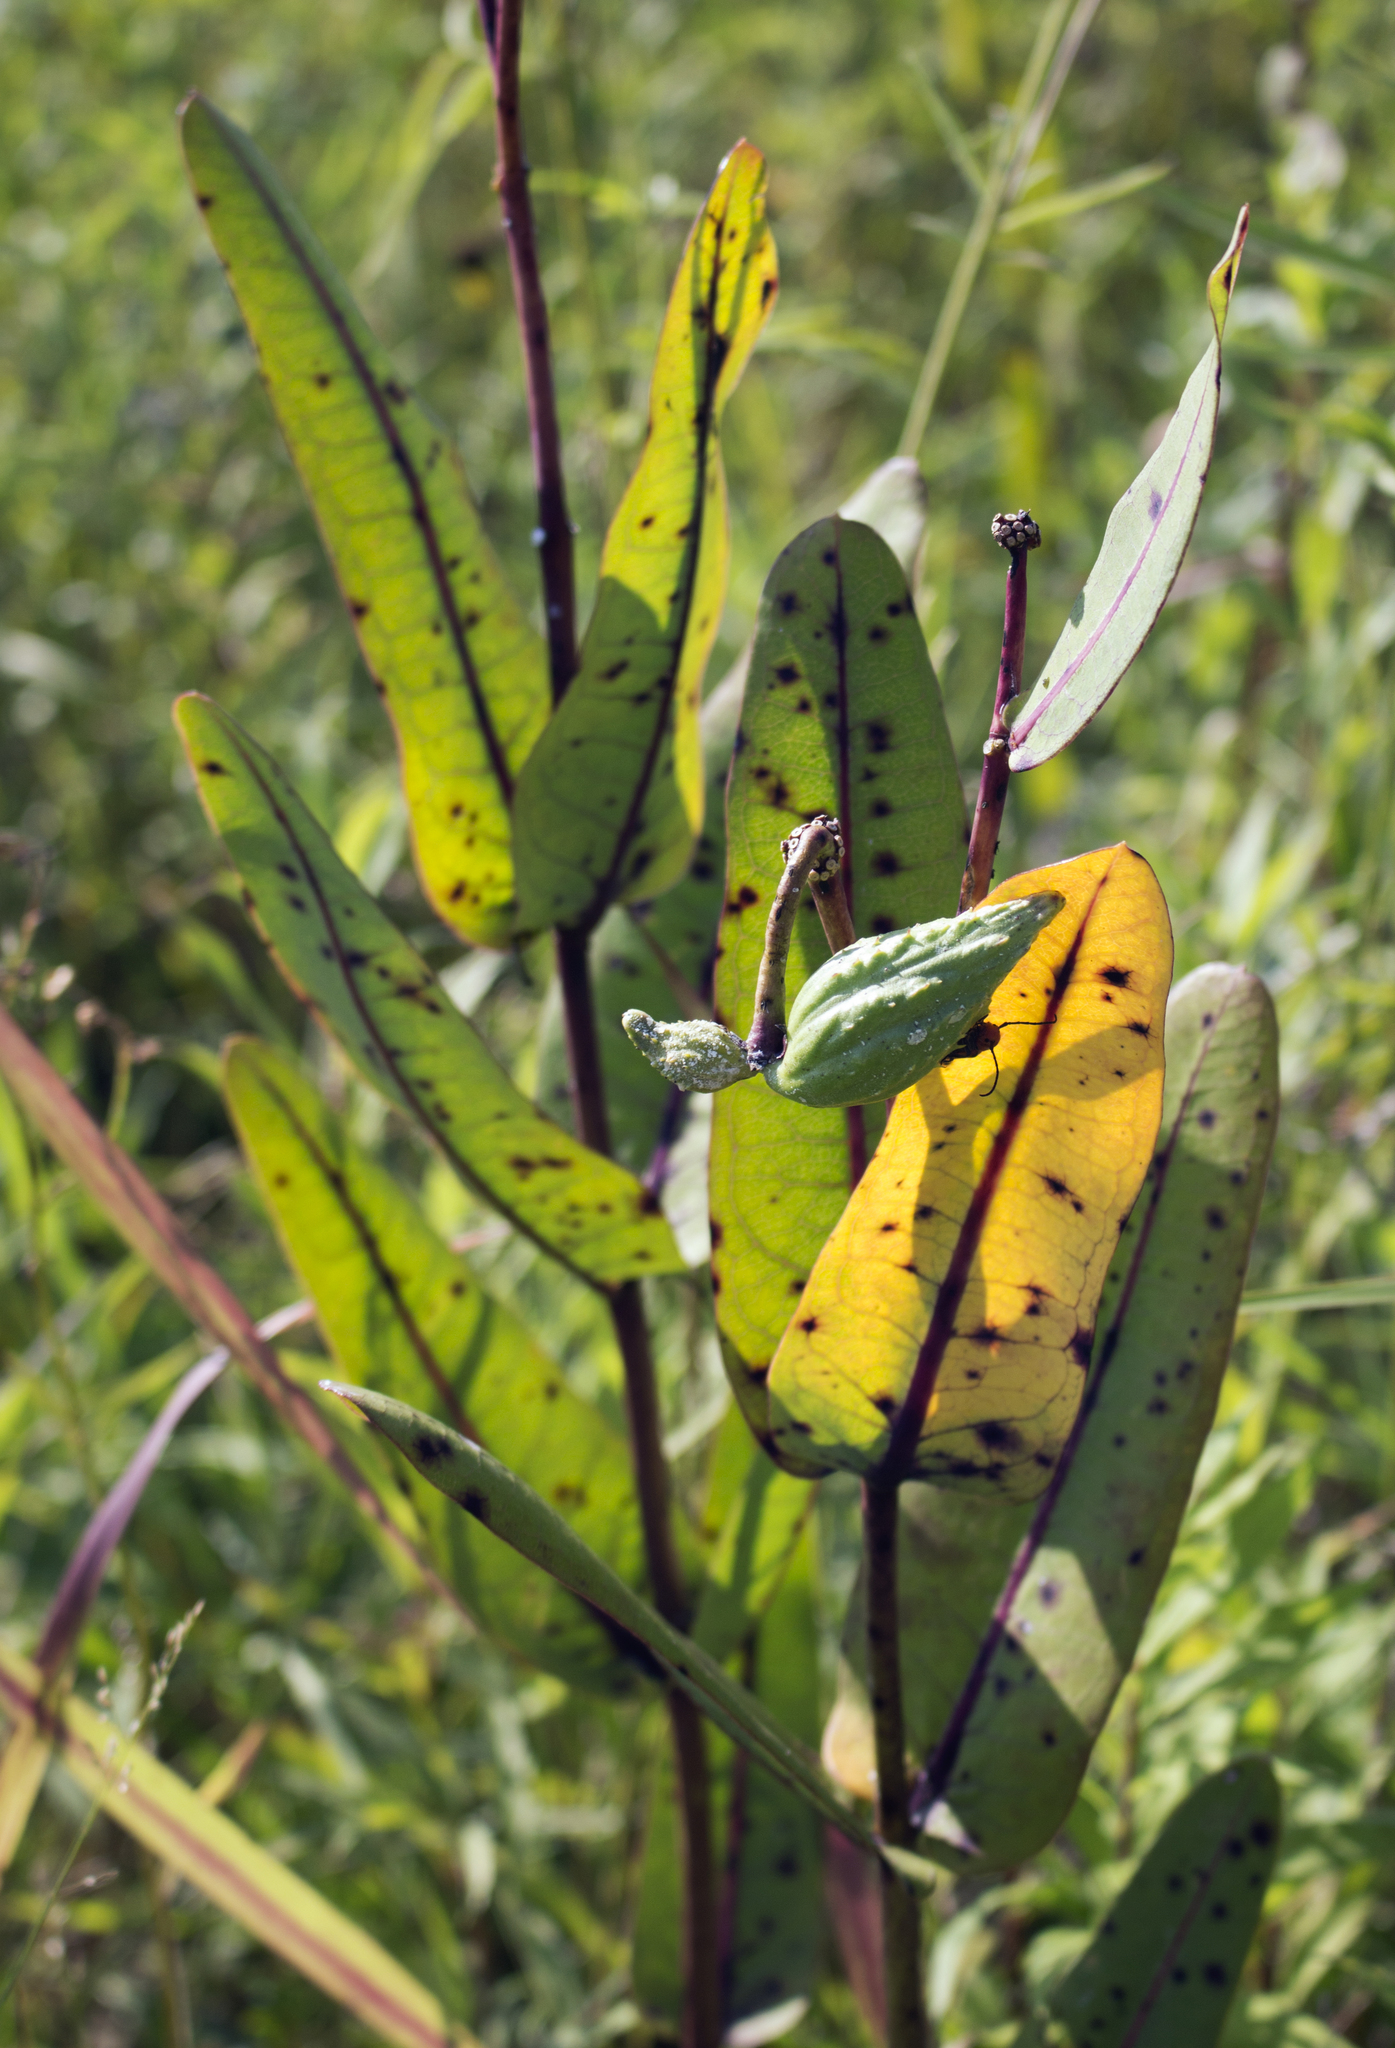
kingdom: Plantae
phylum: Tracheophyta
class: Magnoliopsida
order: Gentianales
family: Apocynaceae
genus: Asclepias
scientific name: Asclepias sullivantii
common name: Prairie milkweed
